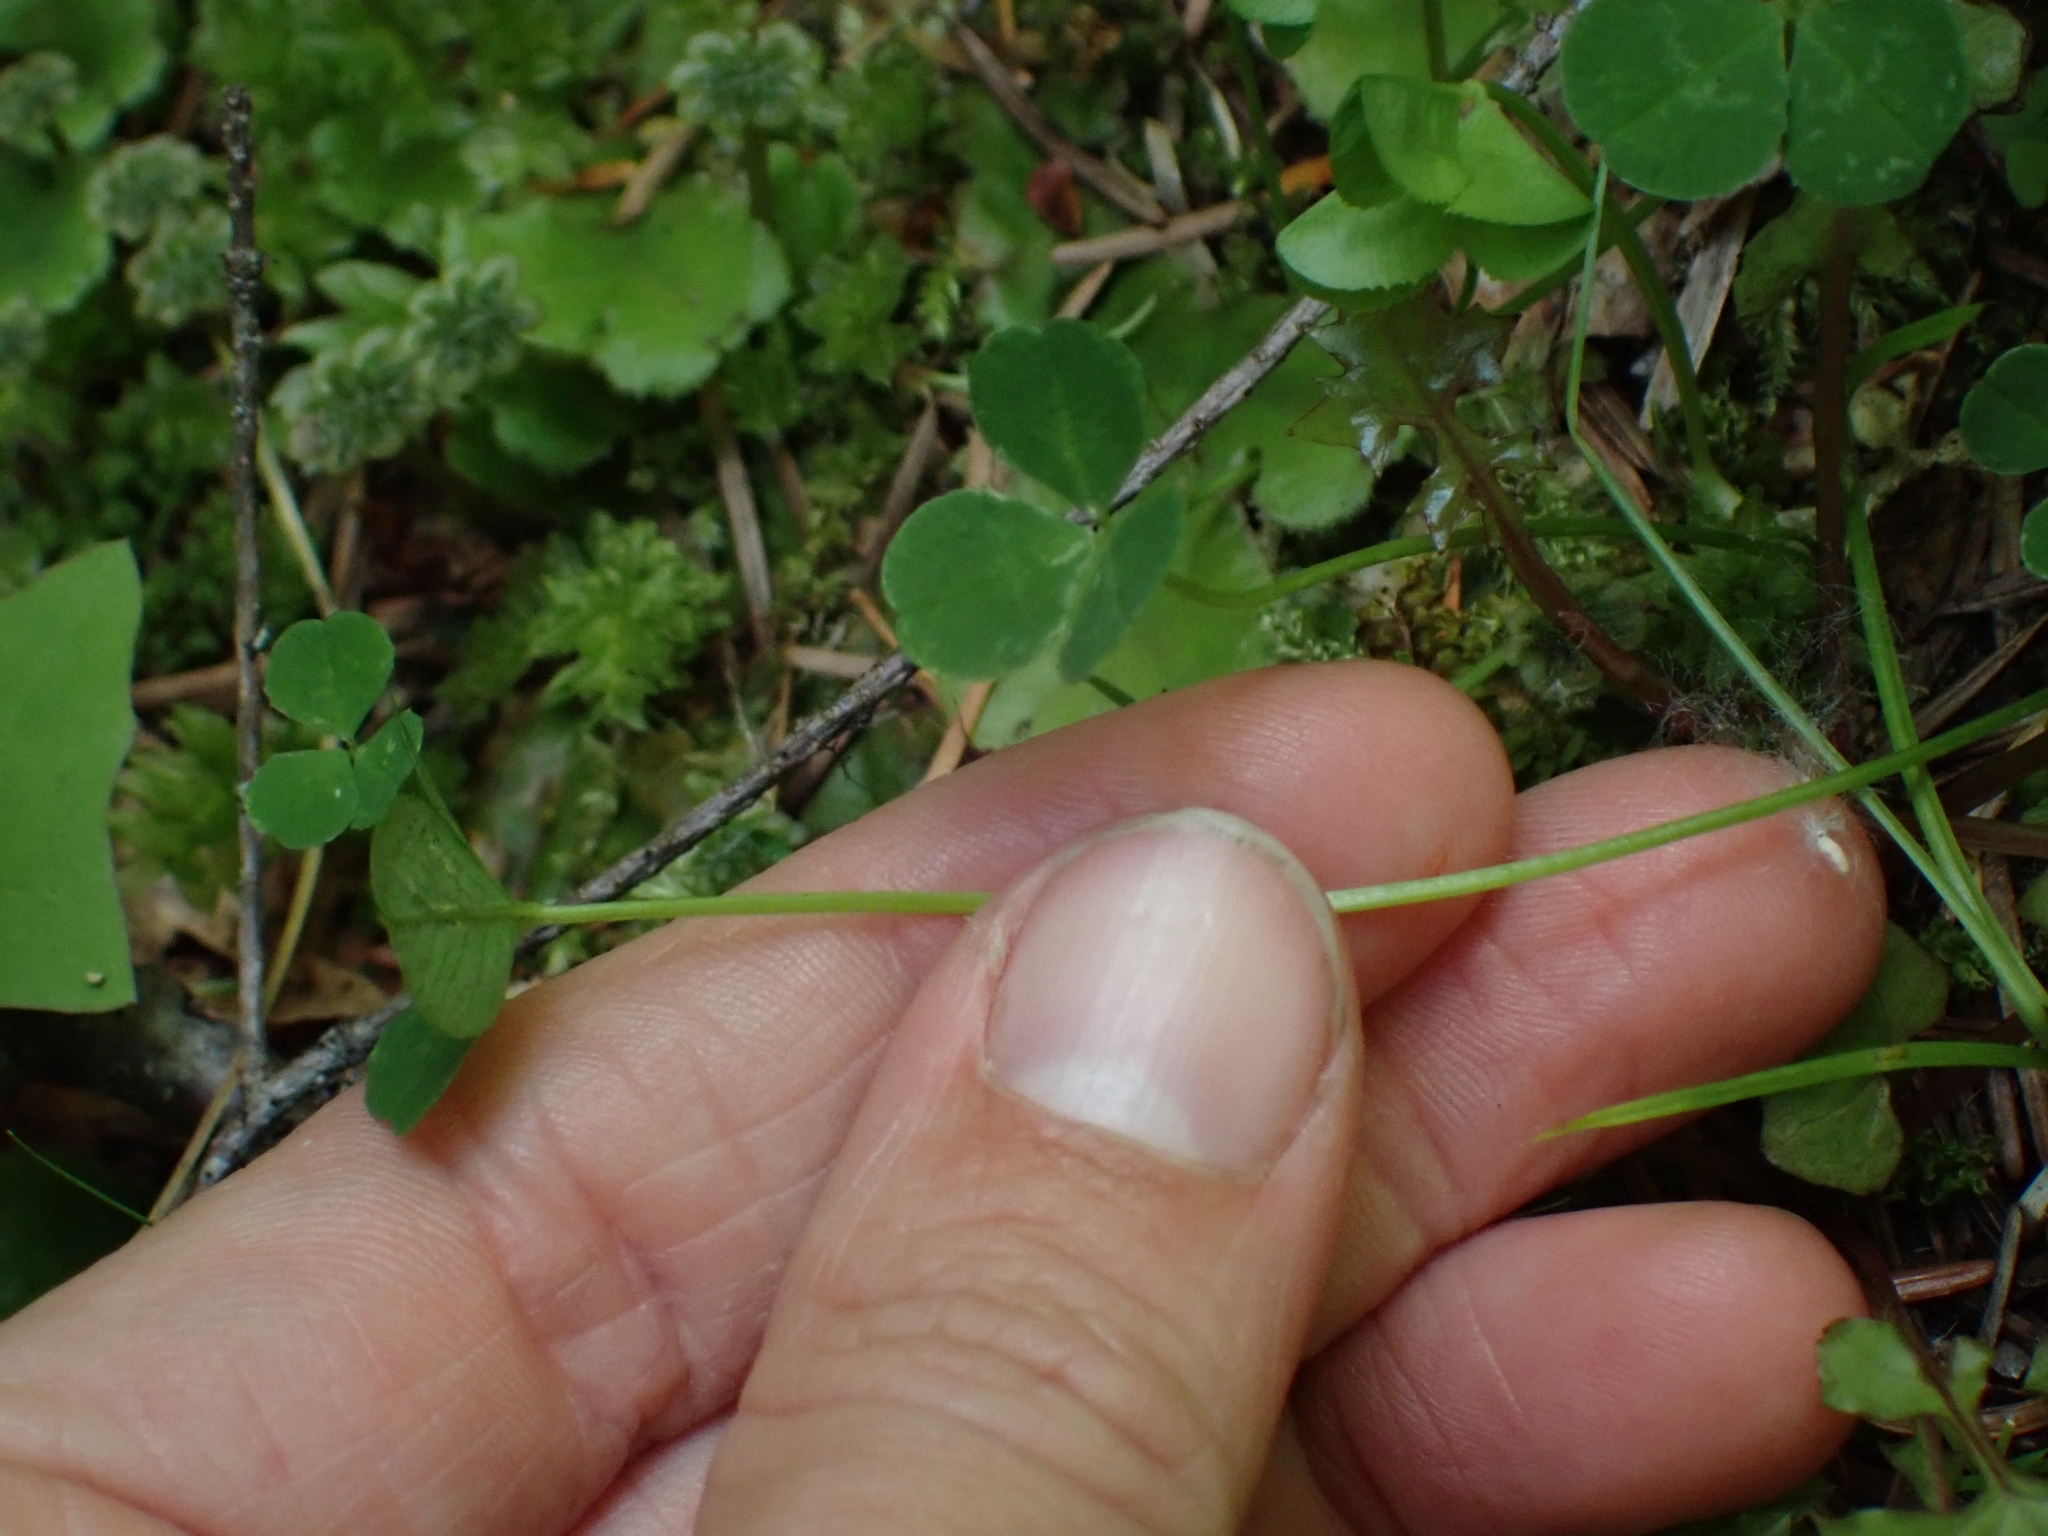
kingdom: Plantae
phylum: Tracheophyta
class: Magnoliopsida
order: Fabales
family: Fabaceae
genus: Trifolium
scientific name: Trifolium repens
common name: White clover
